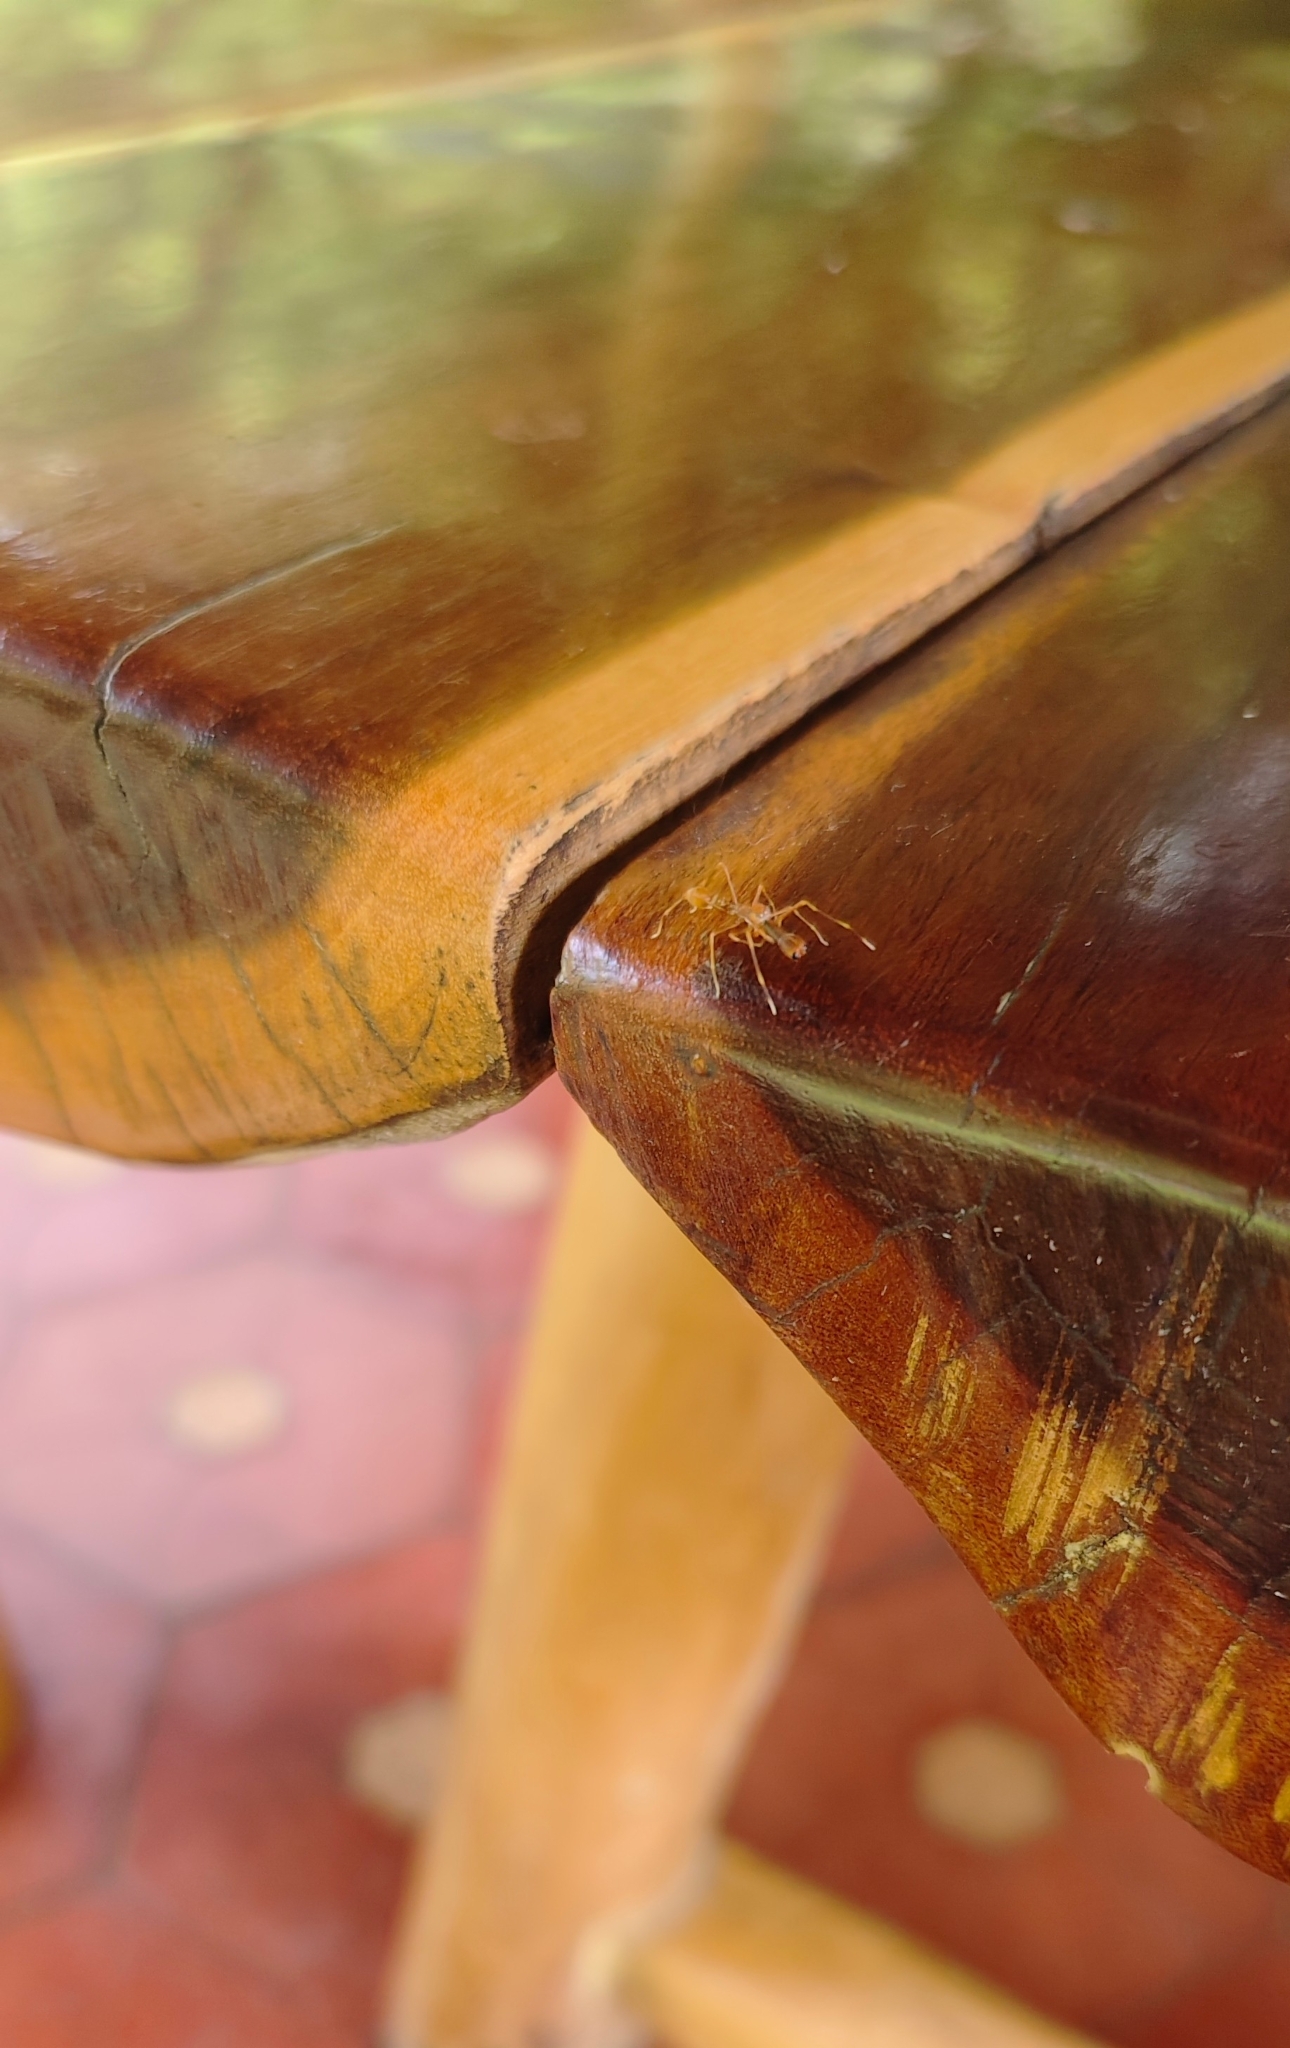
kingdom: Animalia
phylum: Arthropoda
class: Arachnida
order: Araneae
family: Salticidae
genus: Myrmaplata
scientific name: Myrmaplata plataleoides
